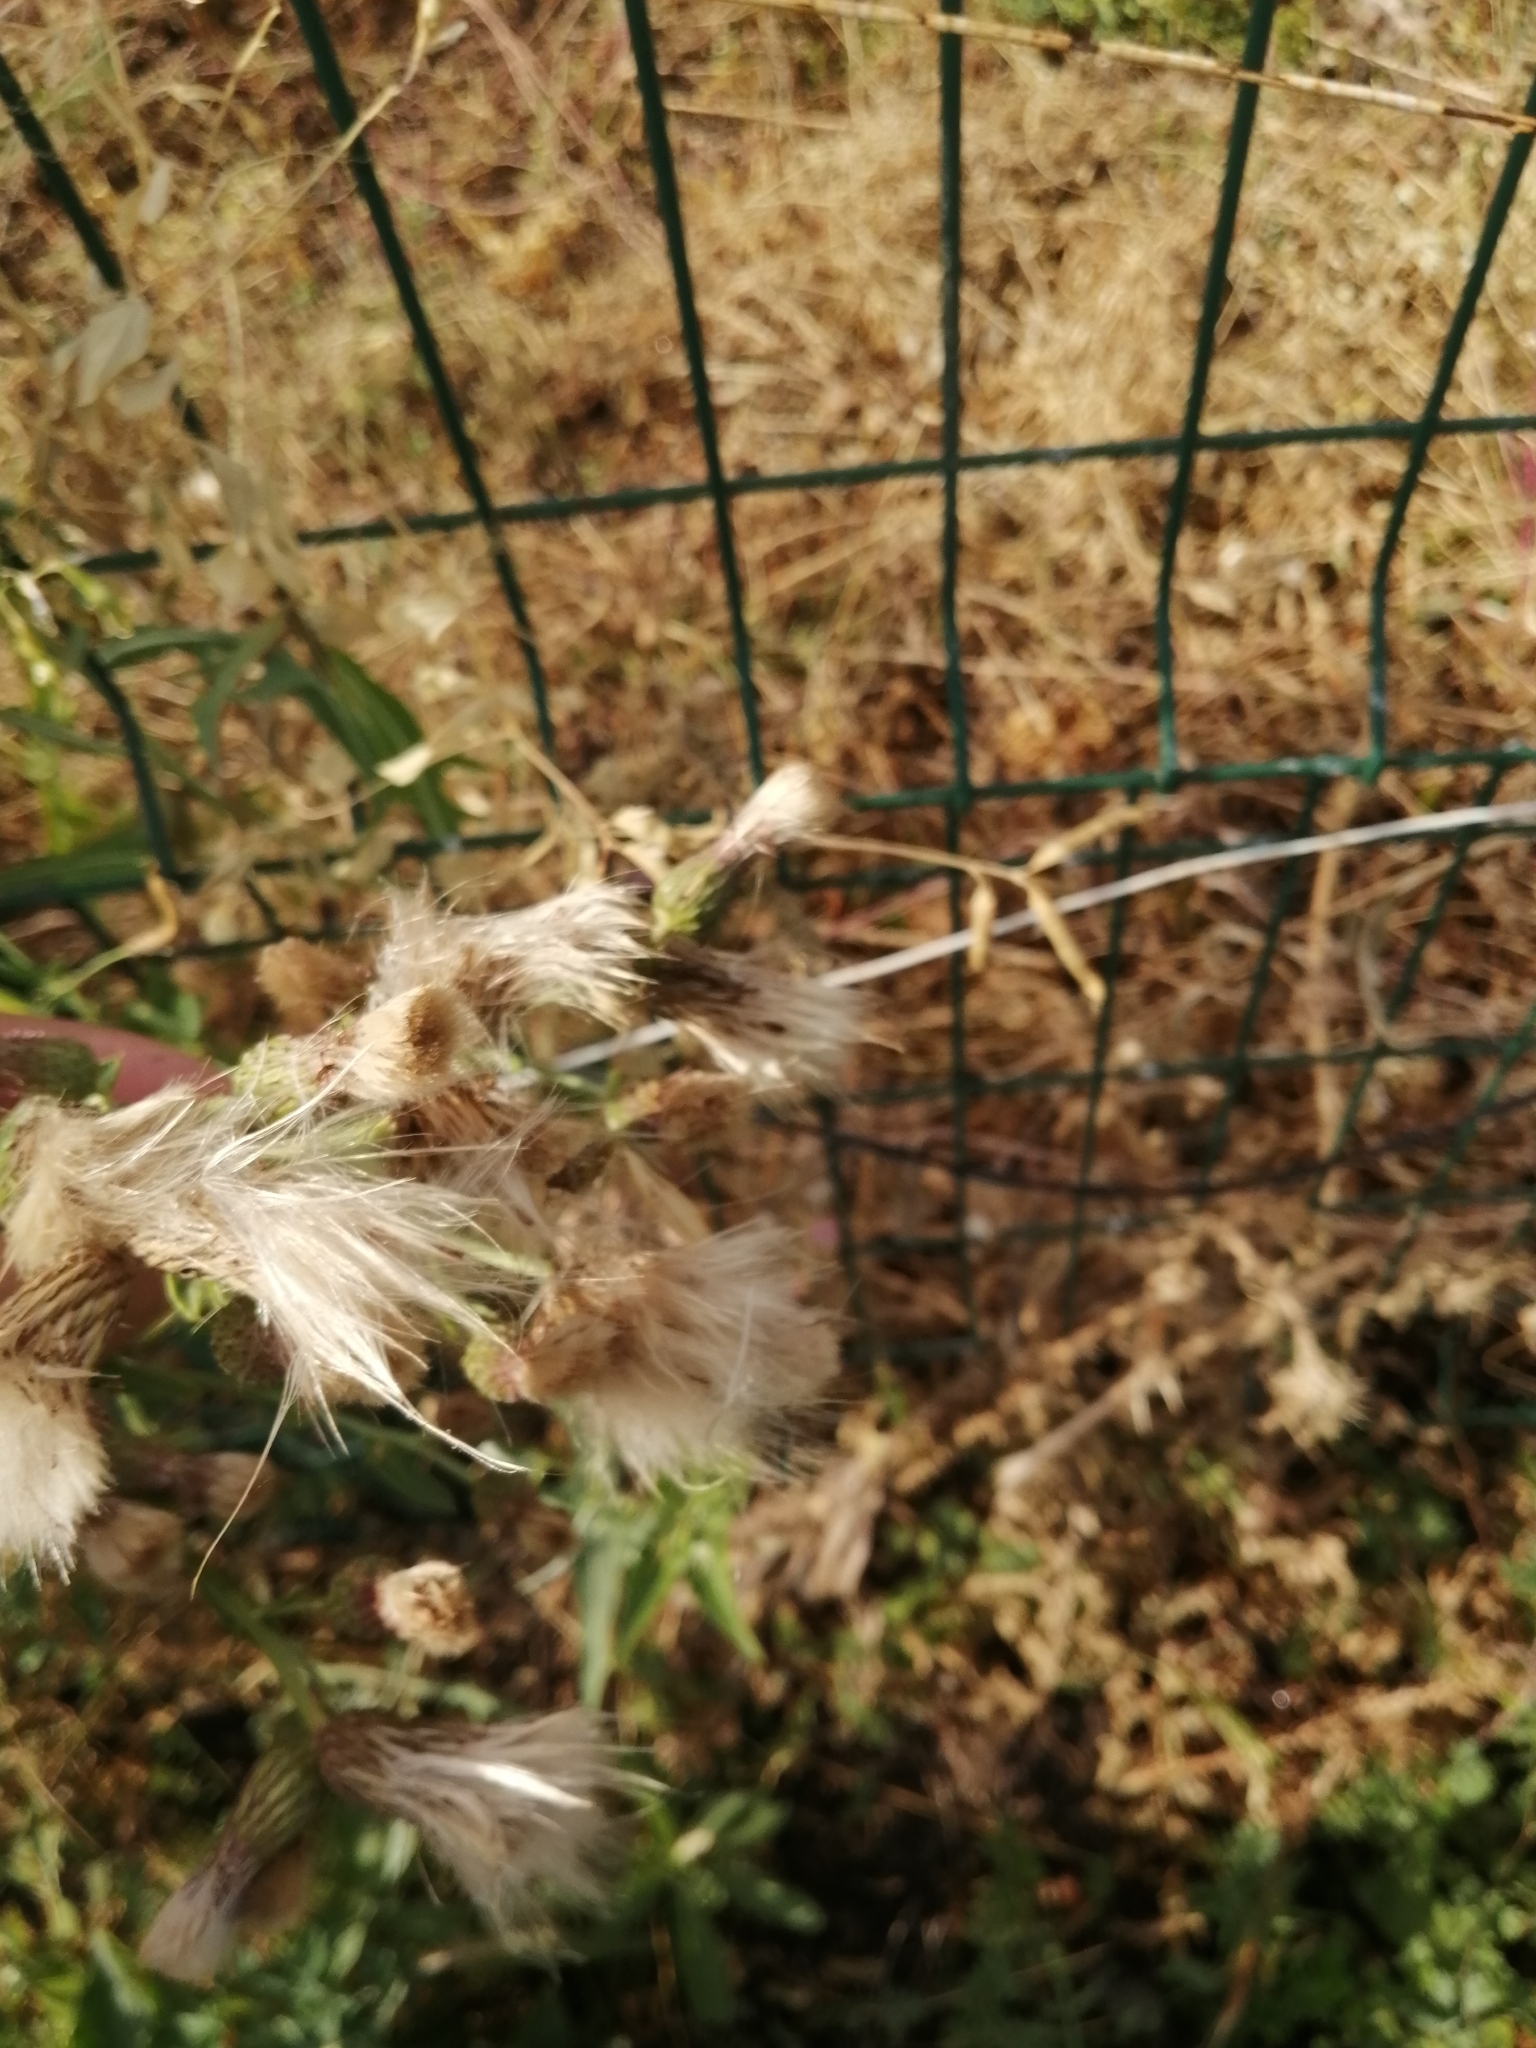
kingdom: Plantae
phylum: Tracheophyta
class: Magnoliopsida
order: Asterales
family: Asteraceae
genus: Cirsium
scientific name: Cirsium arvense
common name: Creeping thistle
